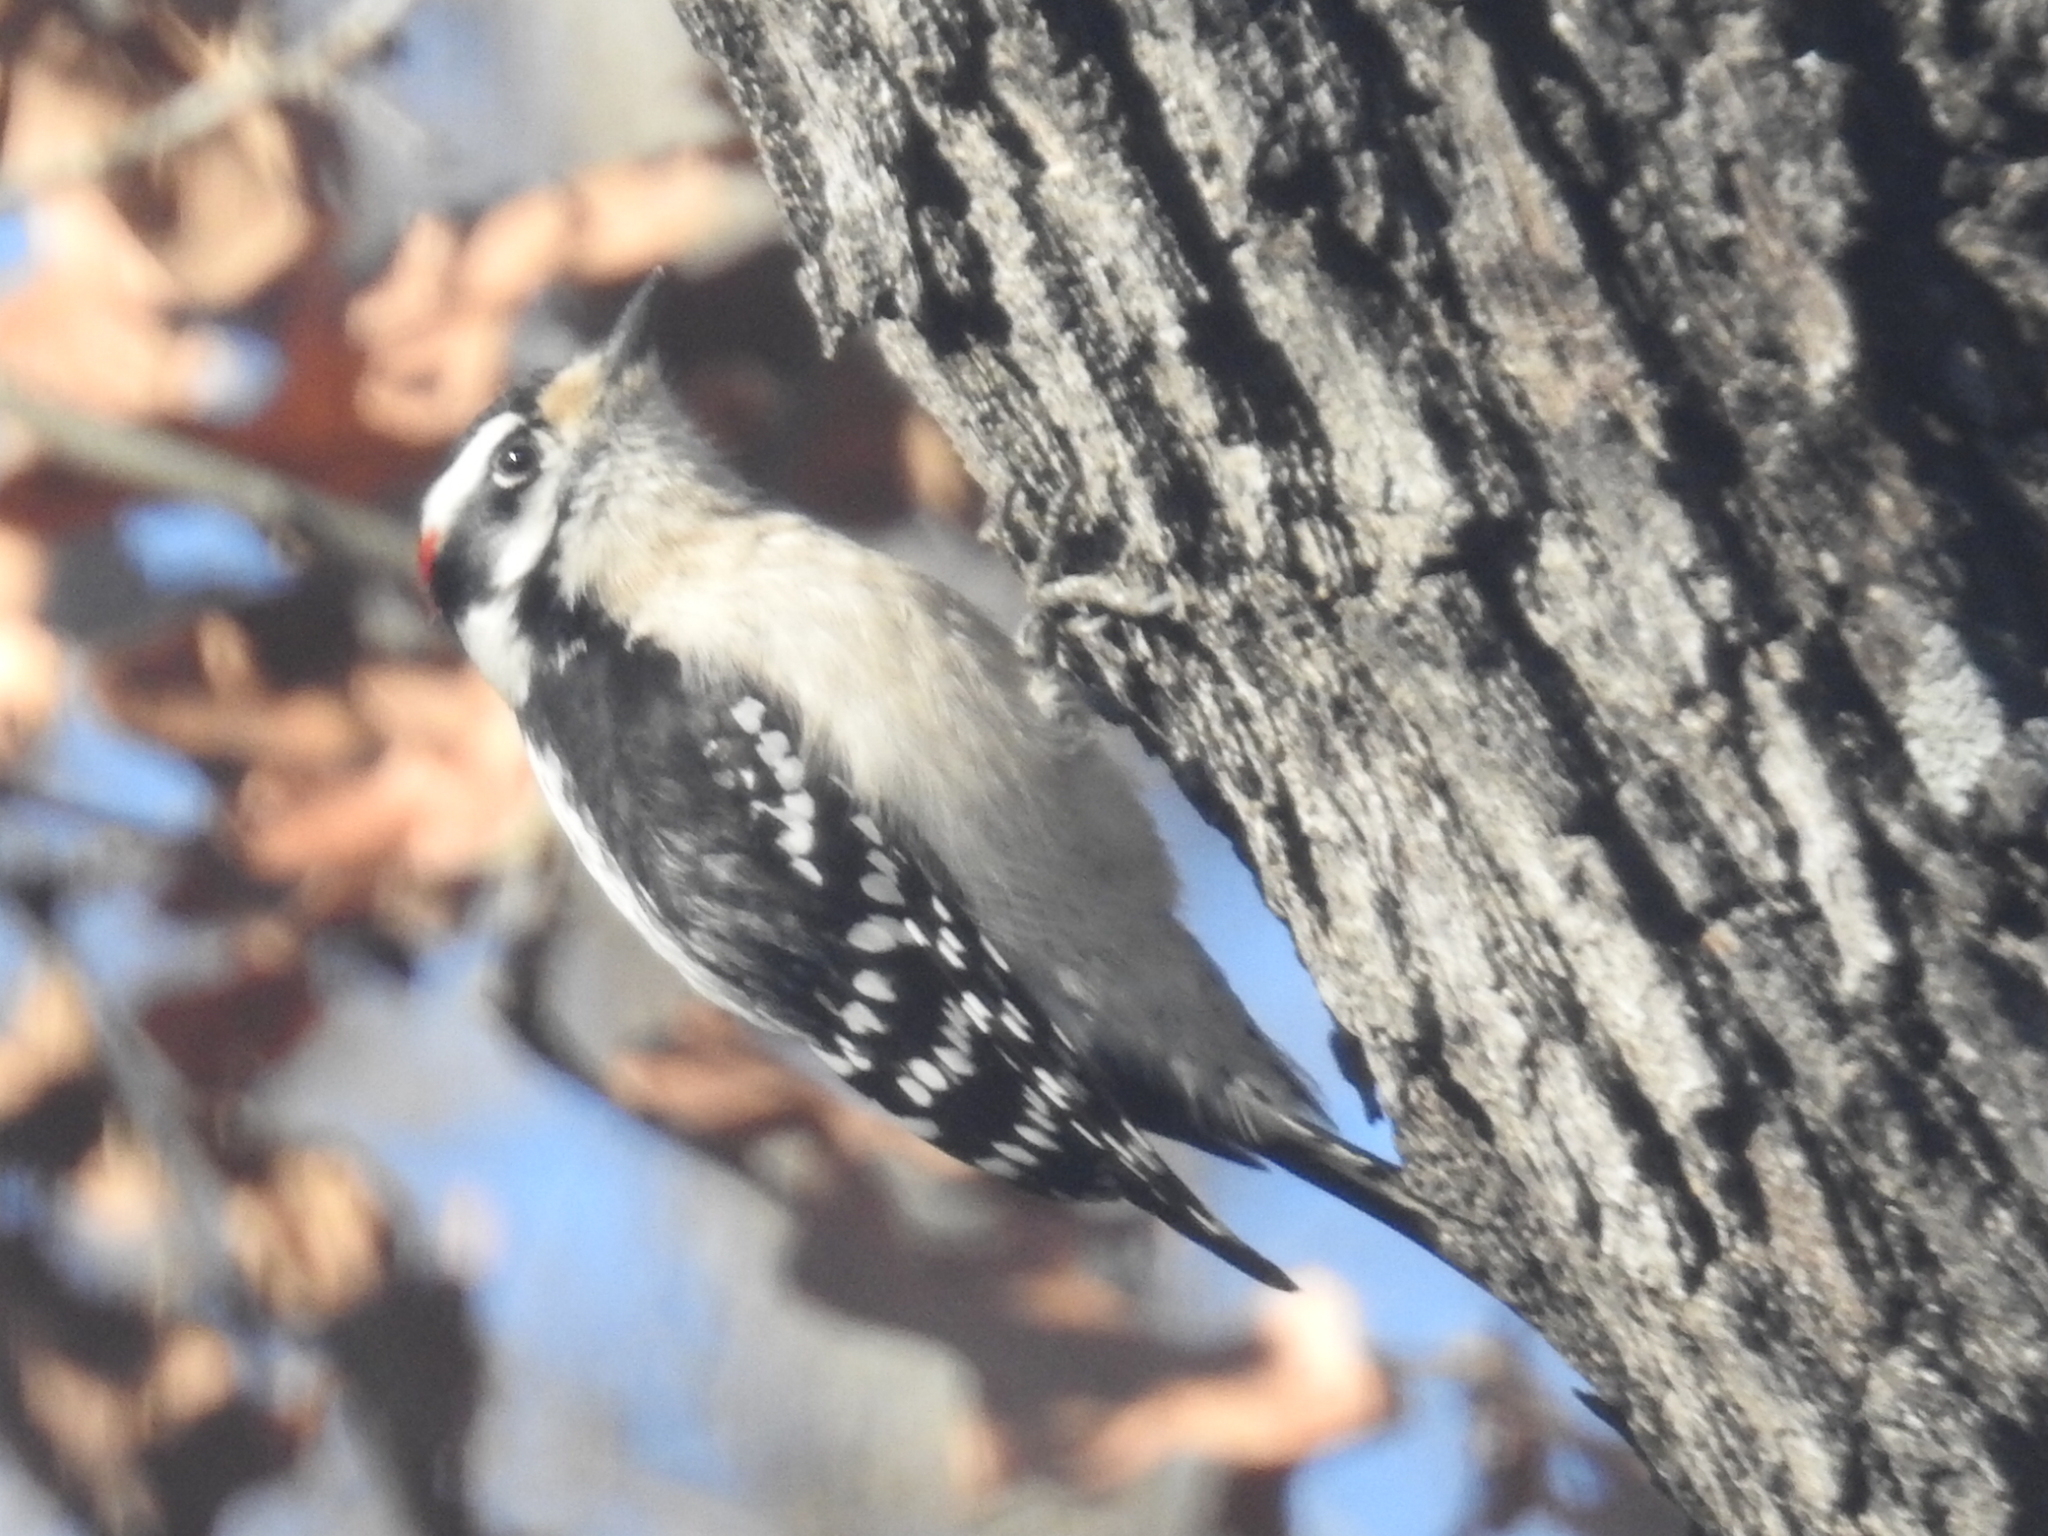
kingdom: Animalia
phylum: Chordata
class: Aves
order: Piciformes
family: Picidae
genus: Dryobates
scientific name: Dryobates pubescens
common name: Downy woodpecker
